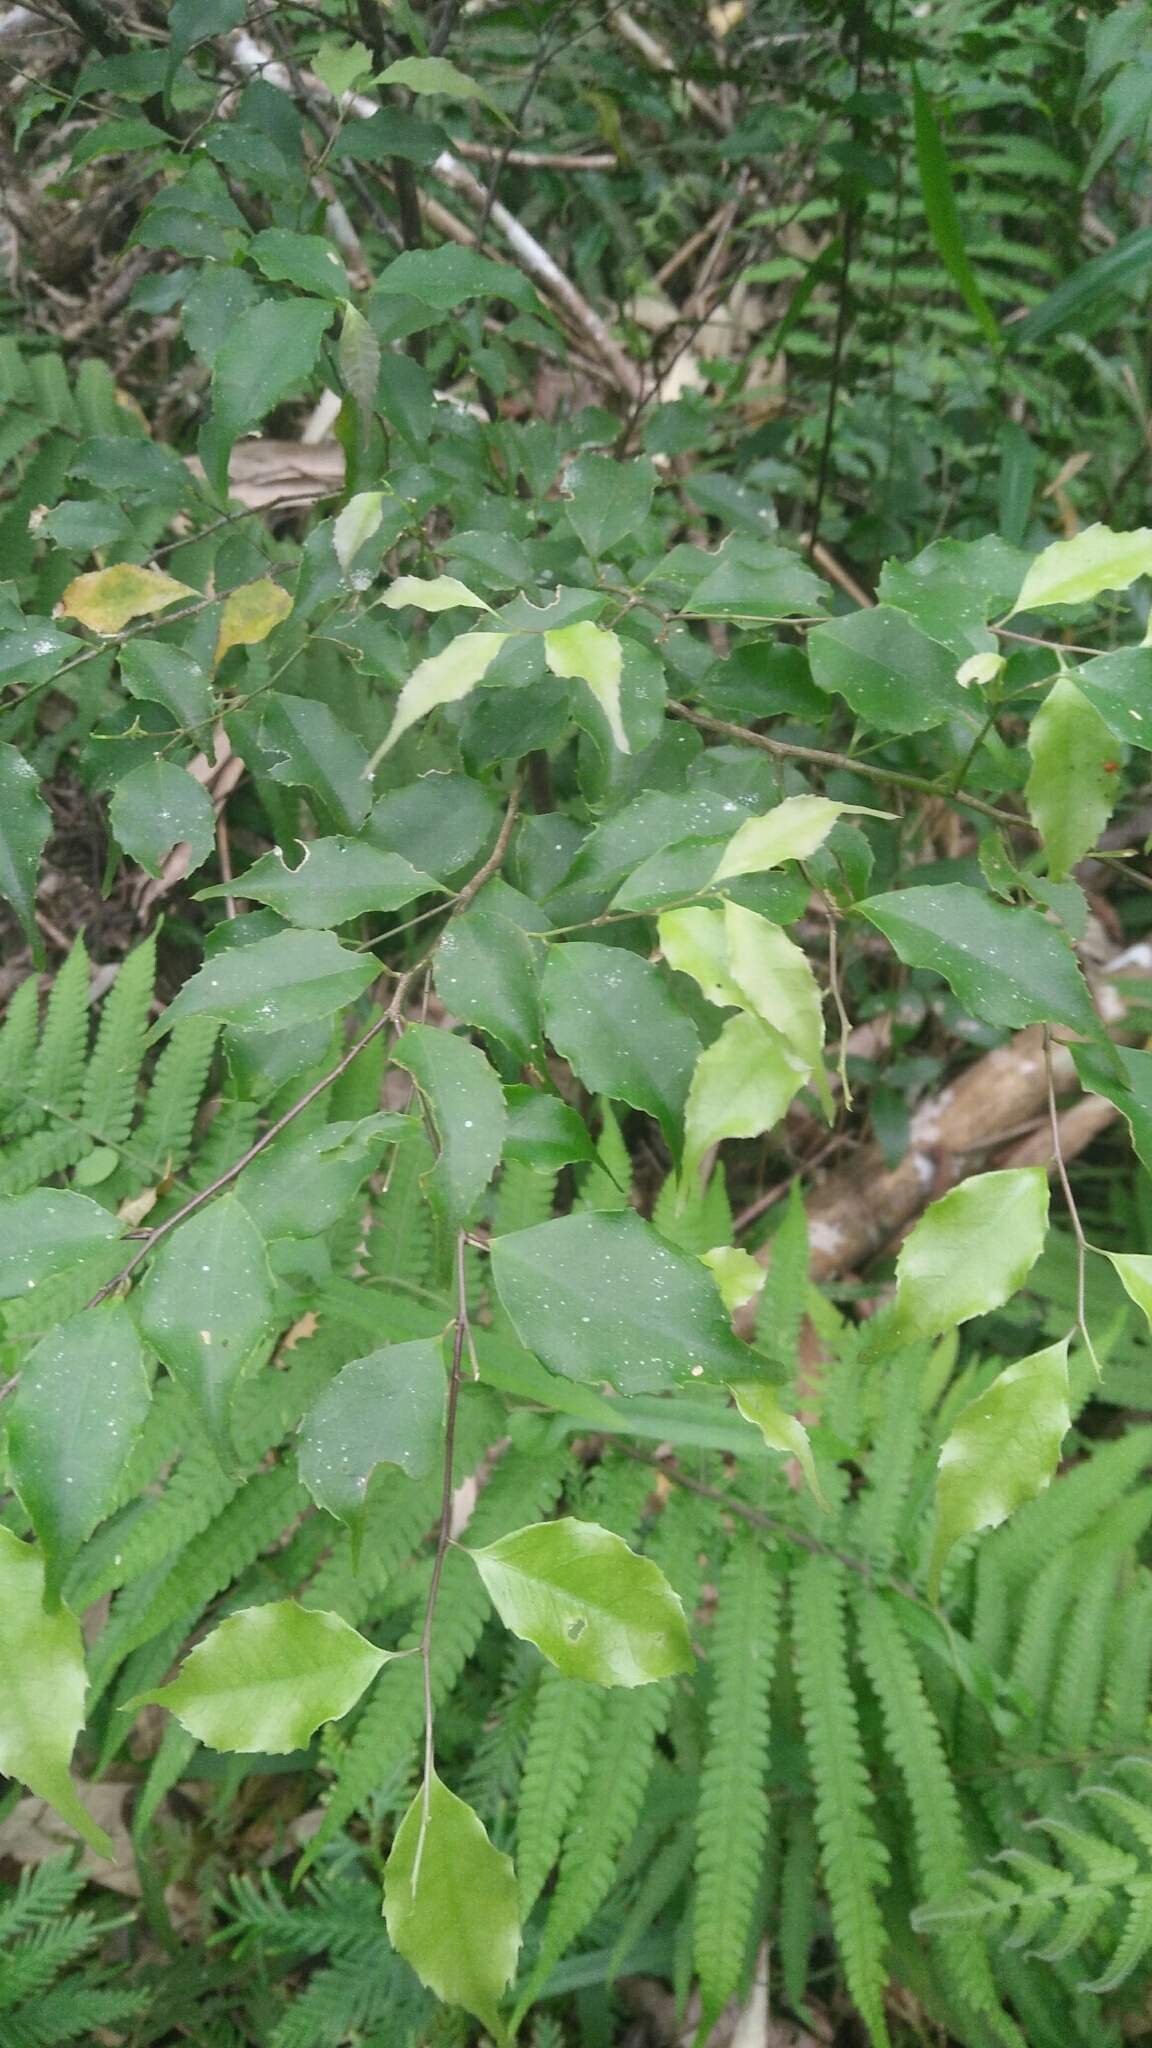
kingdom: Plantae
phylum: Tracheophyta
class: Magnoliopsida
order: Ericales
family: Symplocaceae
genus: Symplocos
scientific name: Symplocos sumuntia
